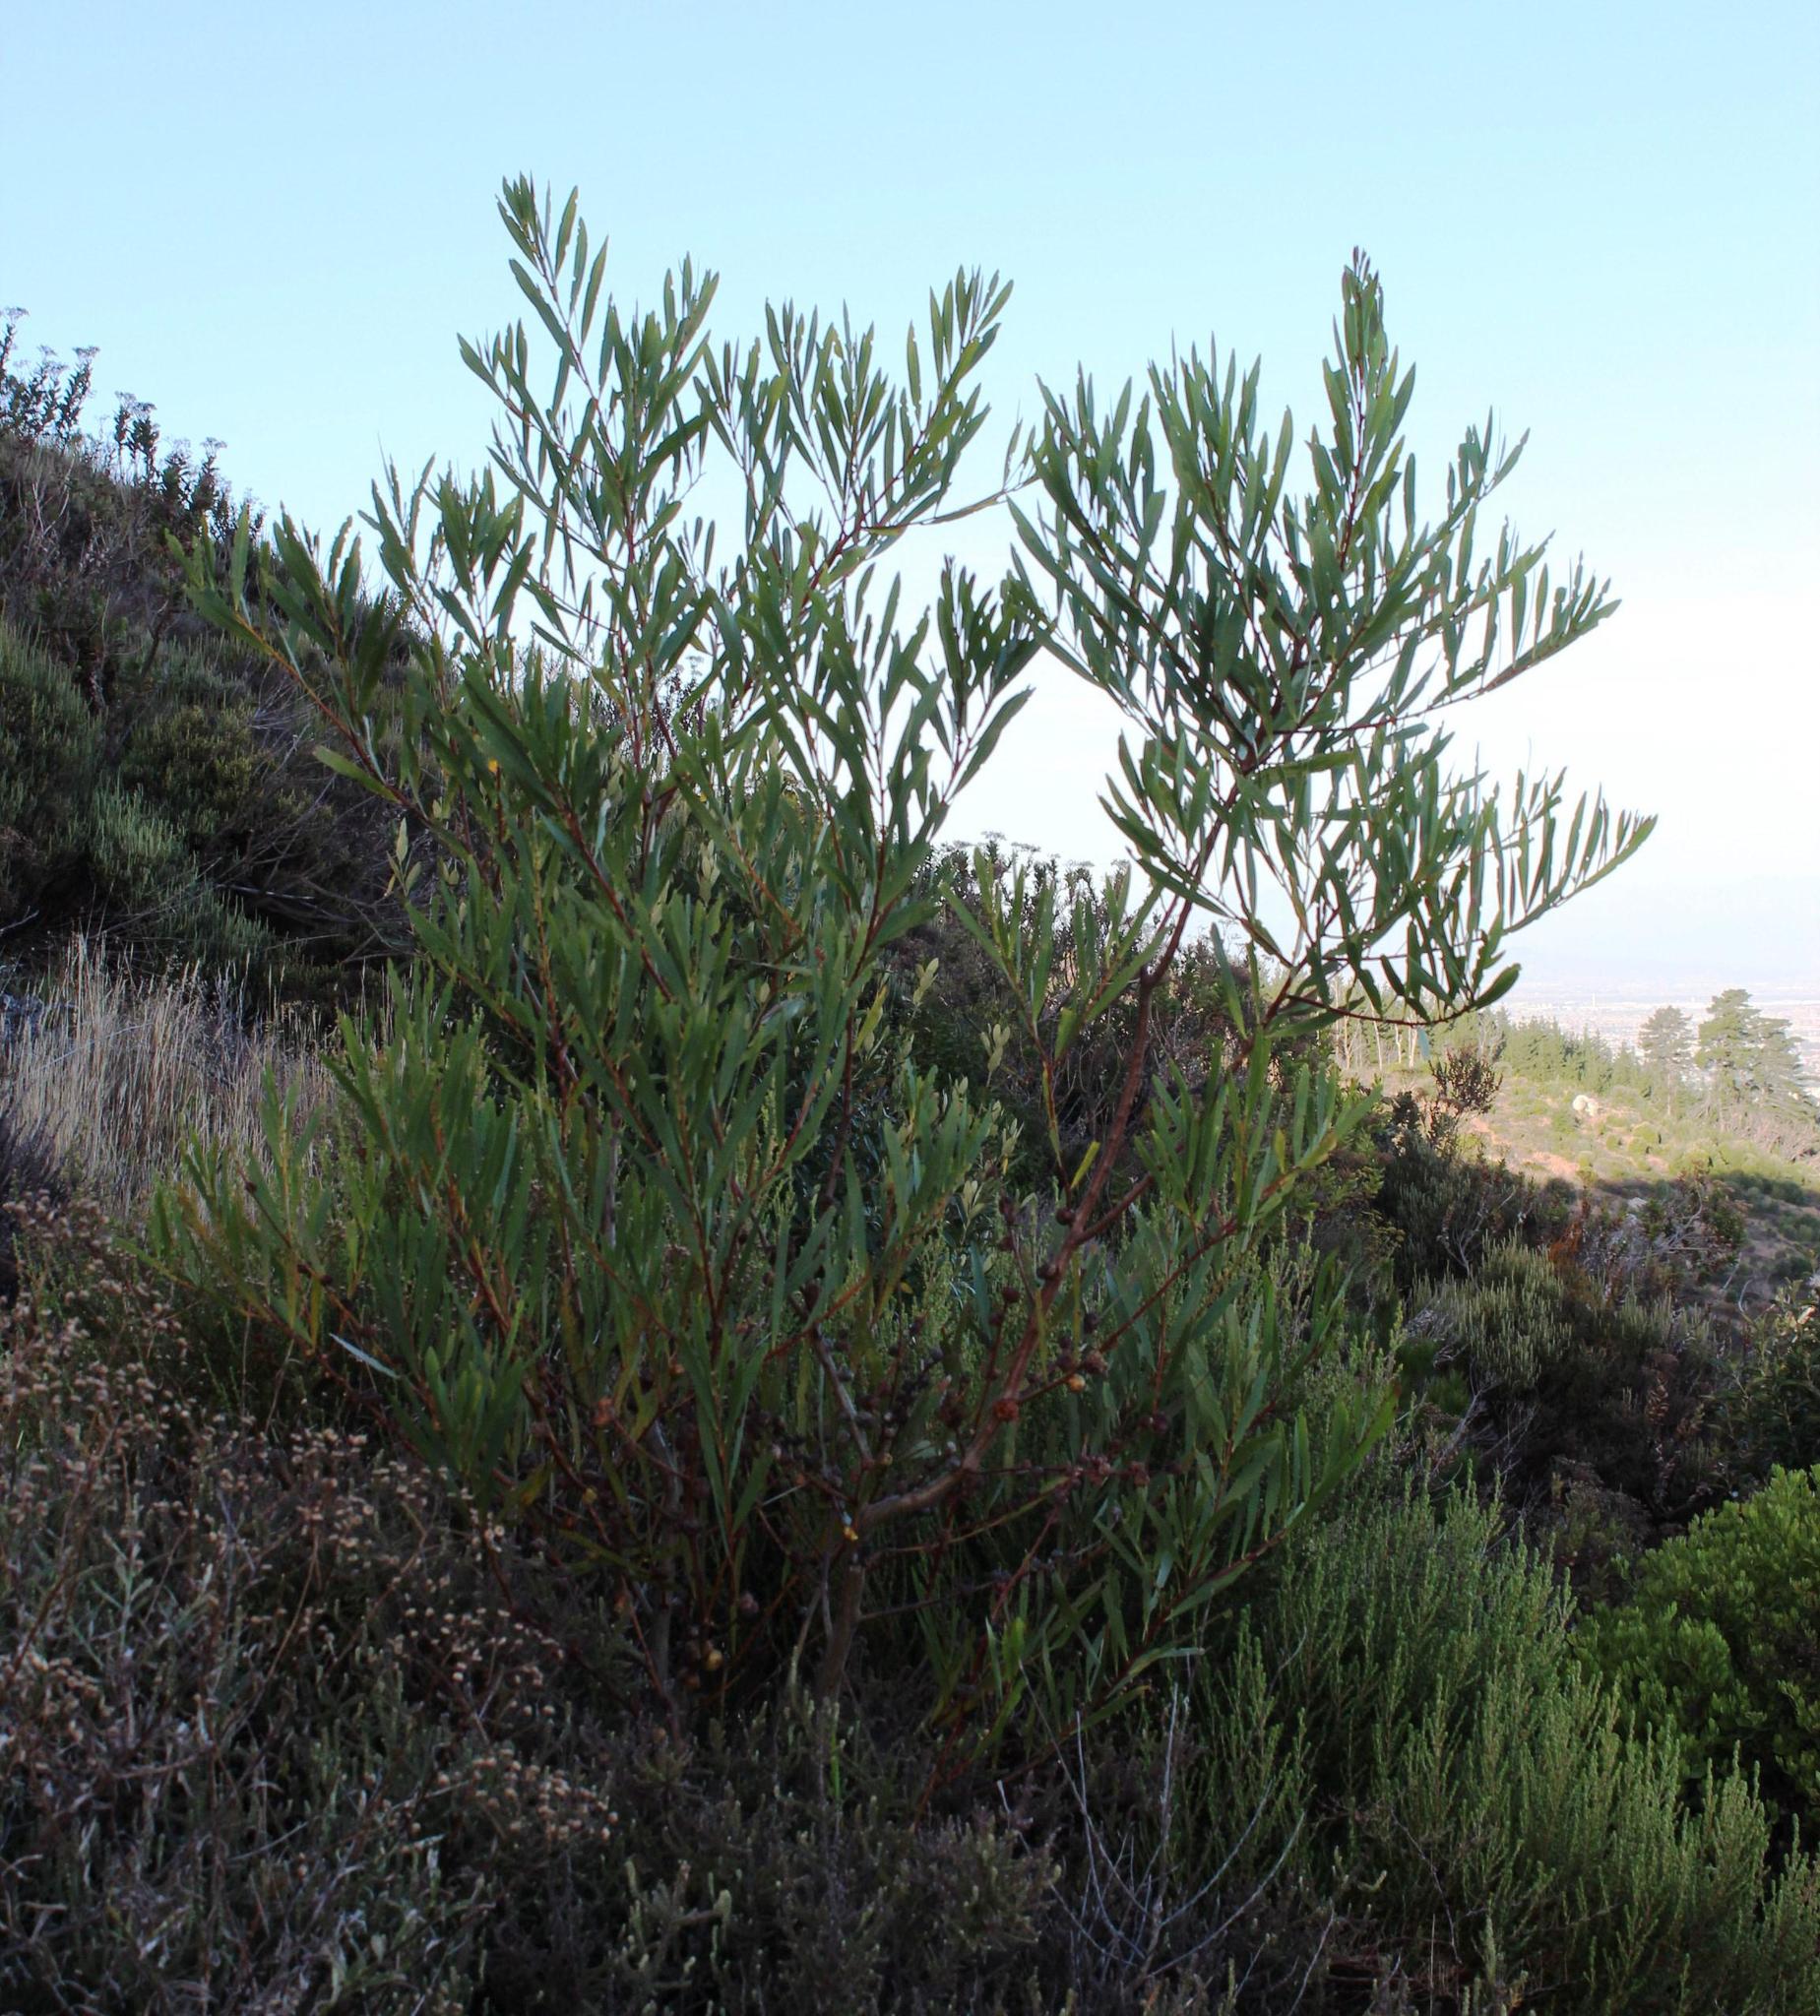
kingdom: Plantae
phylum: Tracheophyta
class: Magnoliopsida
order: Fabales
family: Fabaceae
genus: Acacia
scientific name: Acacia longifolia
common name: Sydney golden wattle
